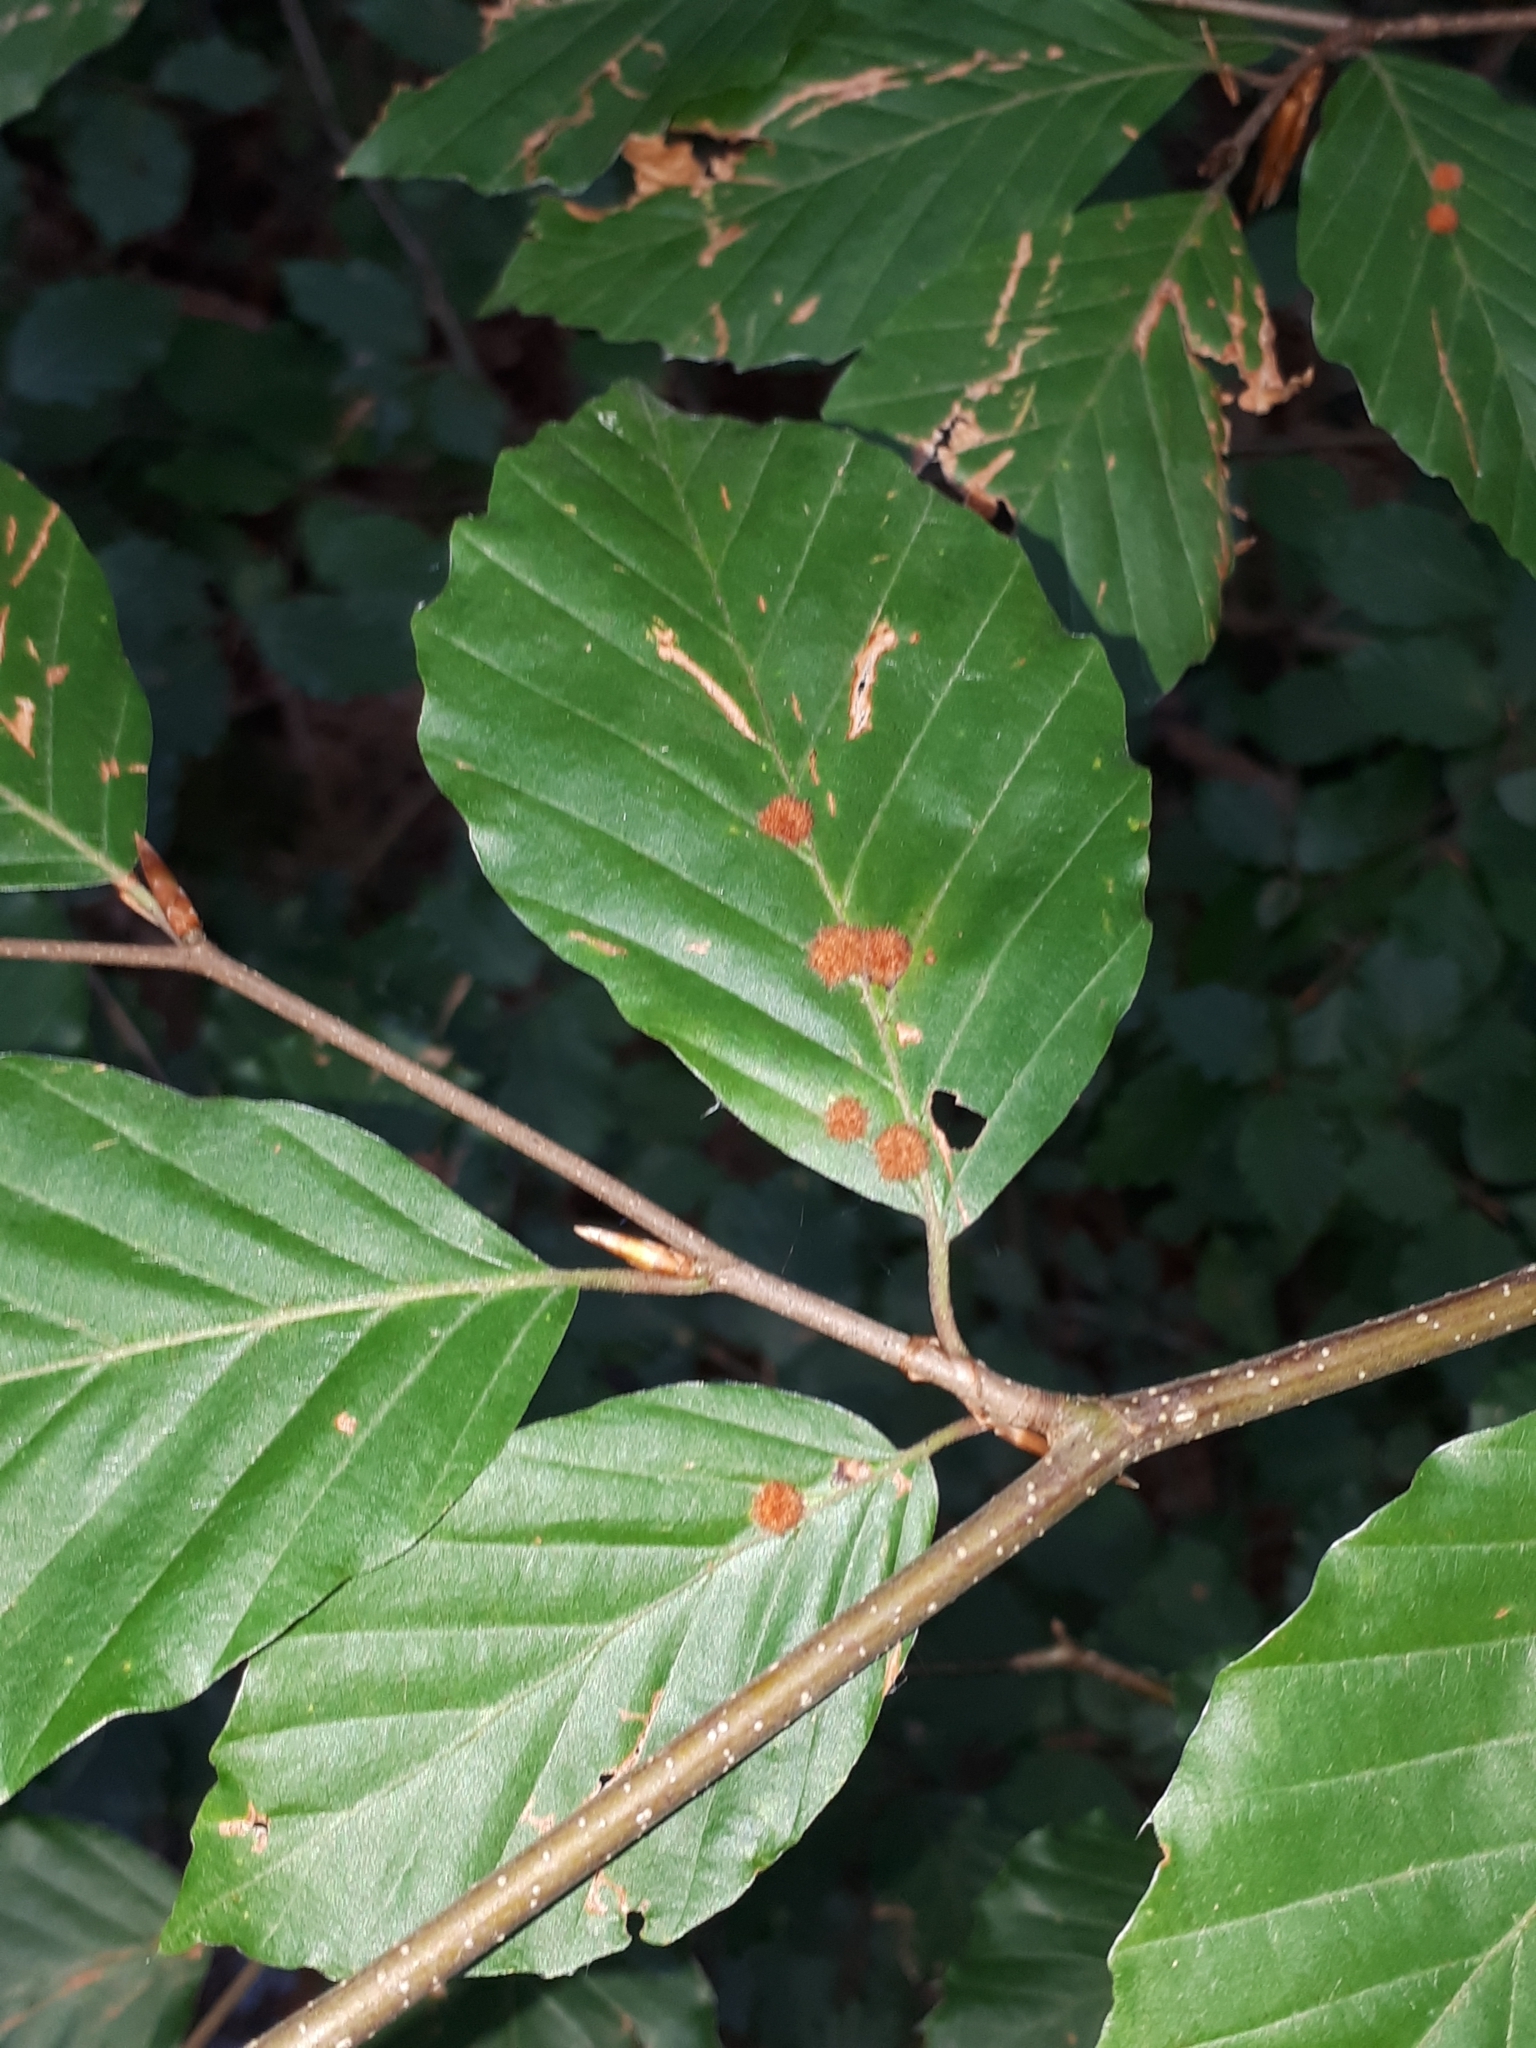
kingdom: Animalia
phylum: Arthropoda
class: Insecta
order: Diptera
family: Cecidomyiidae
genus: Hartigiola
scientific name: Hartigiola annulipes
